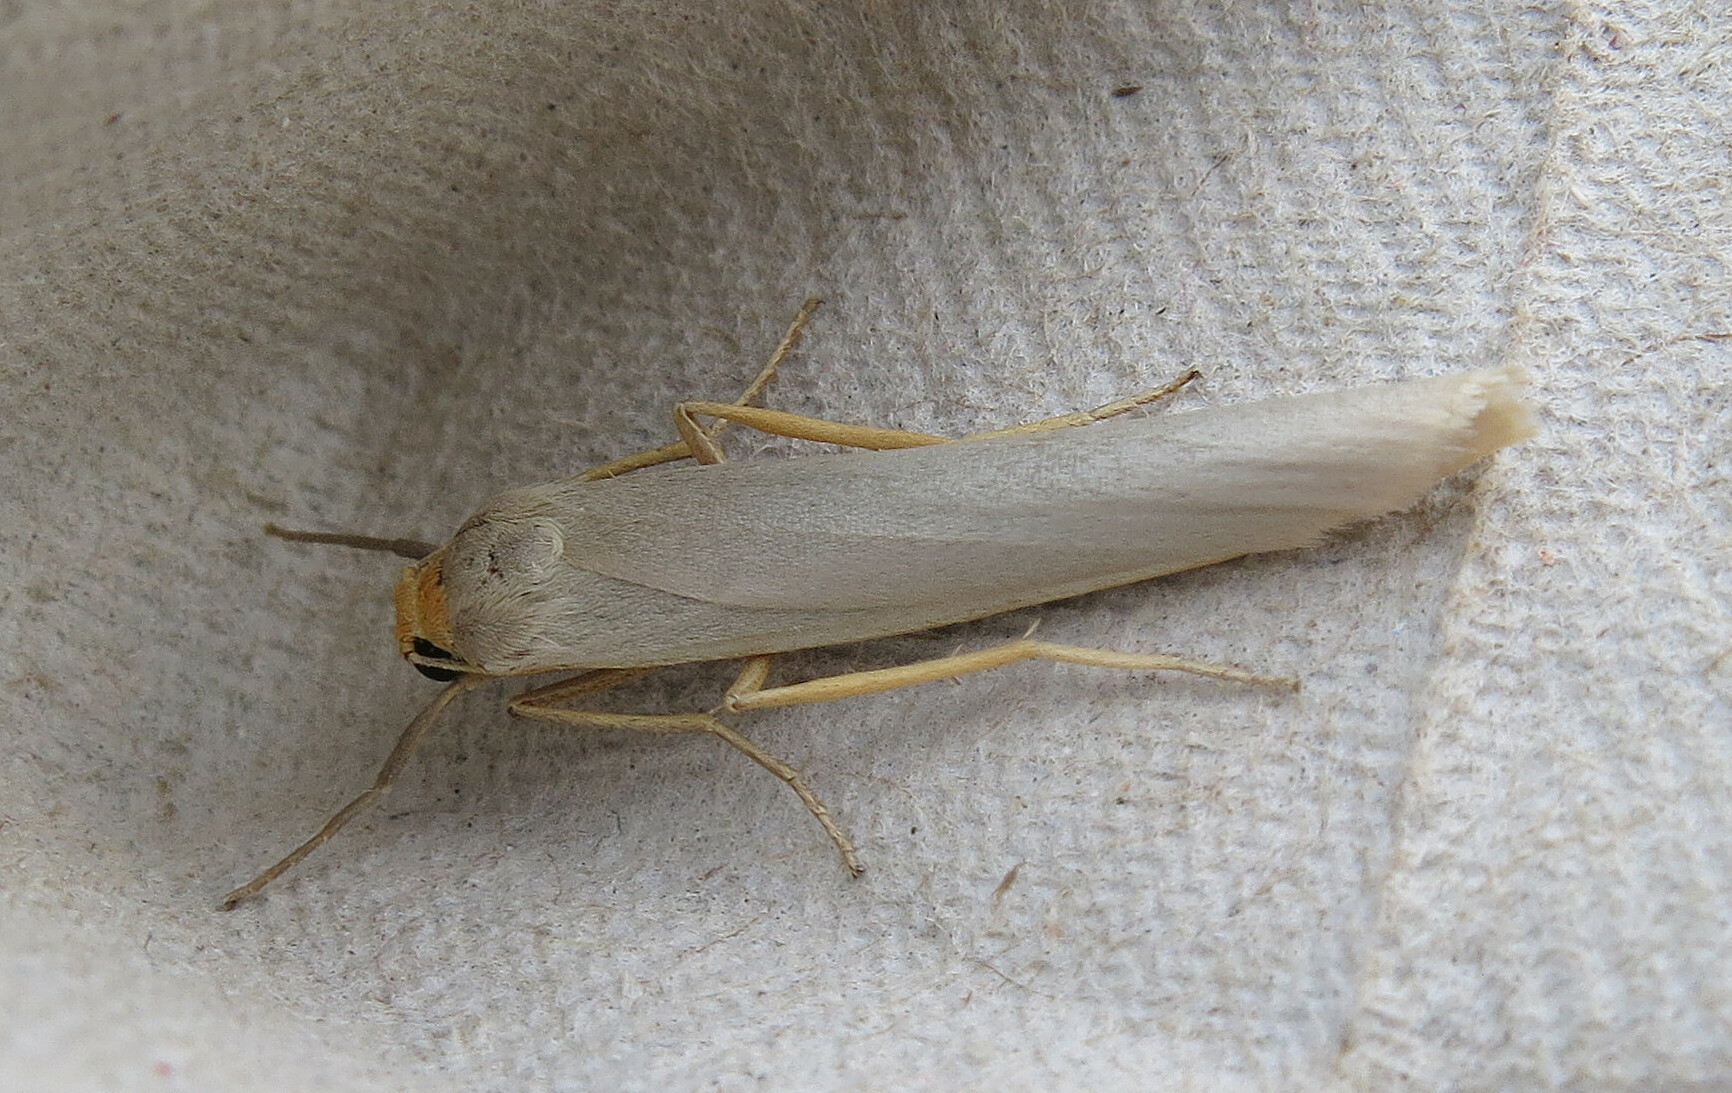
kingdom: Animalia
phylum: Arthropoda
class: Insecta
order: Lepidoptera
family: Erebidae
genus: Eilema
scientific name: Eilema caniola
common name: Hoary footman
